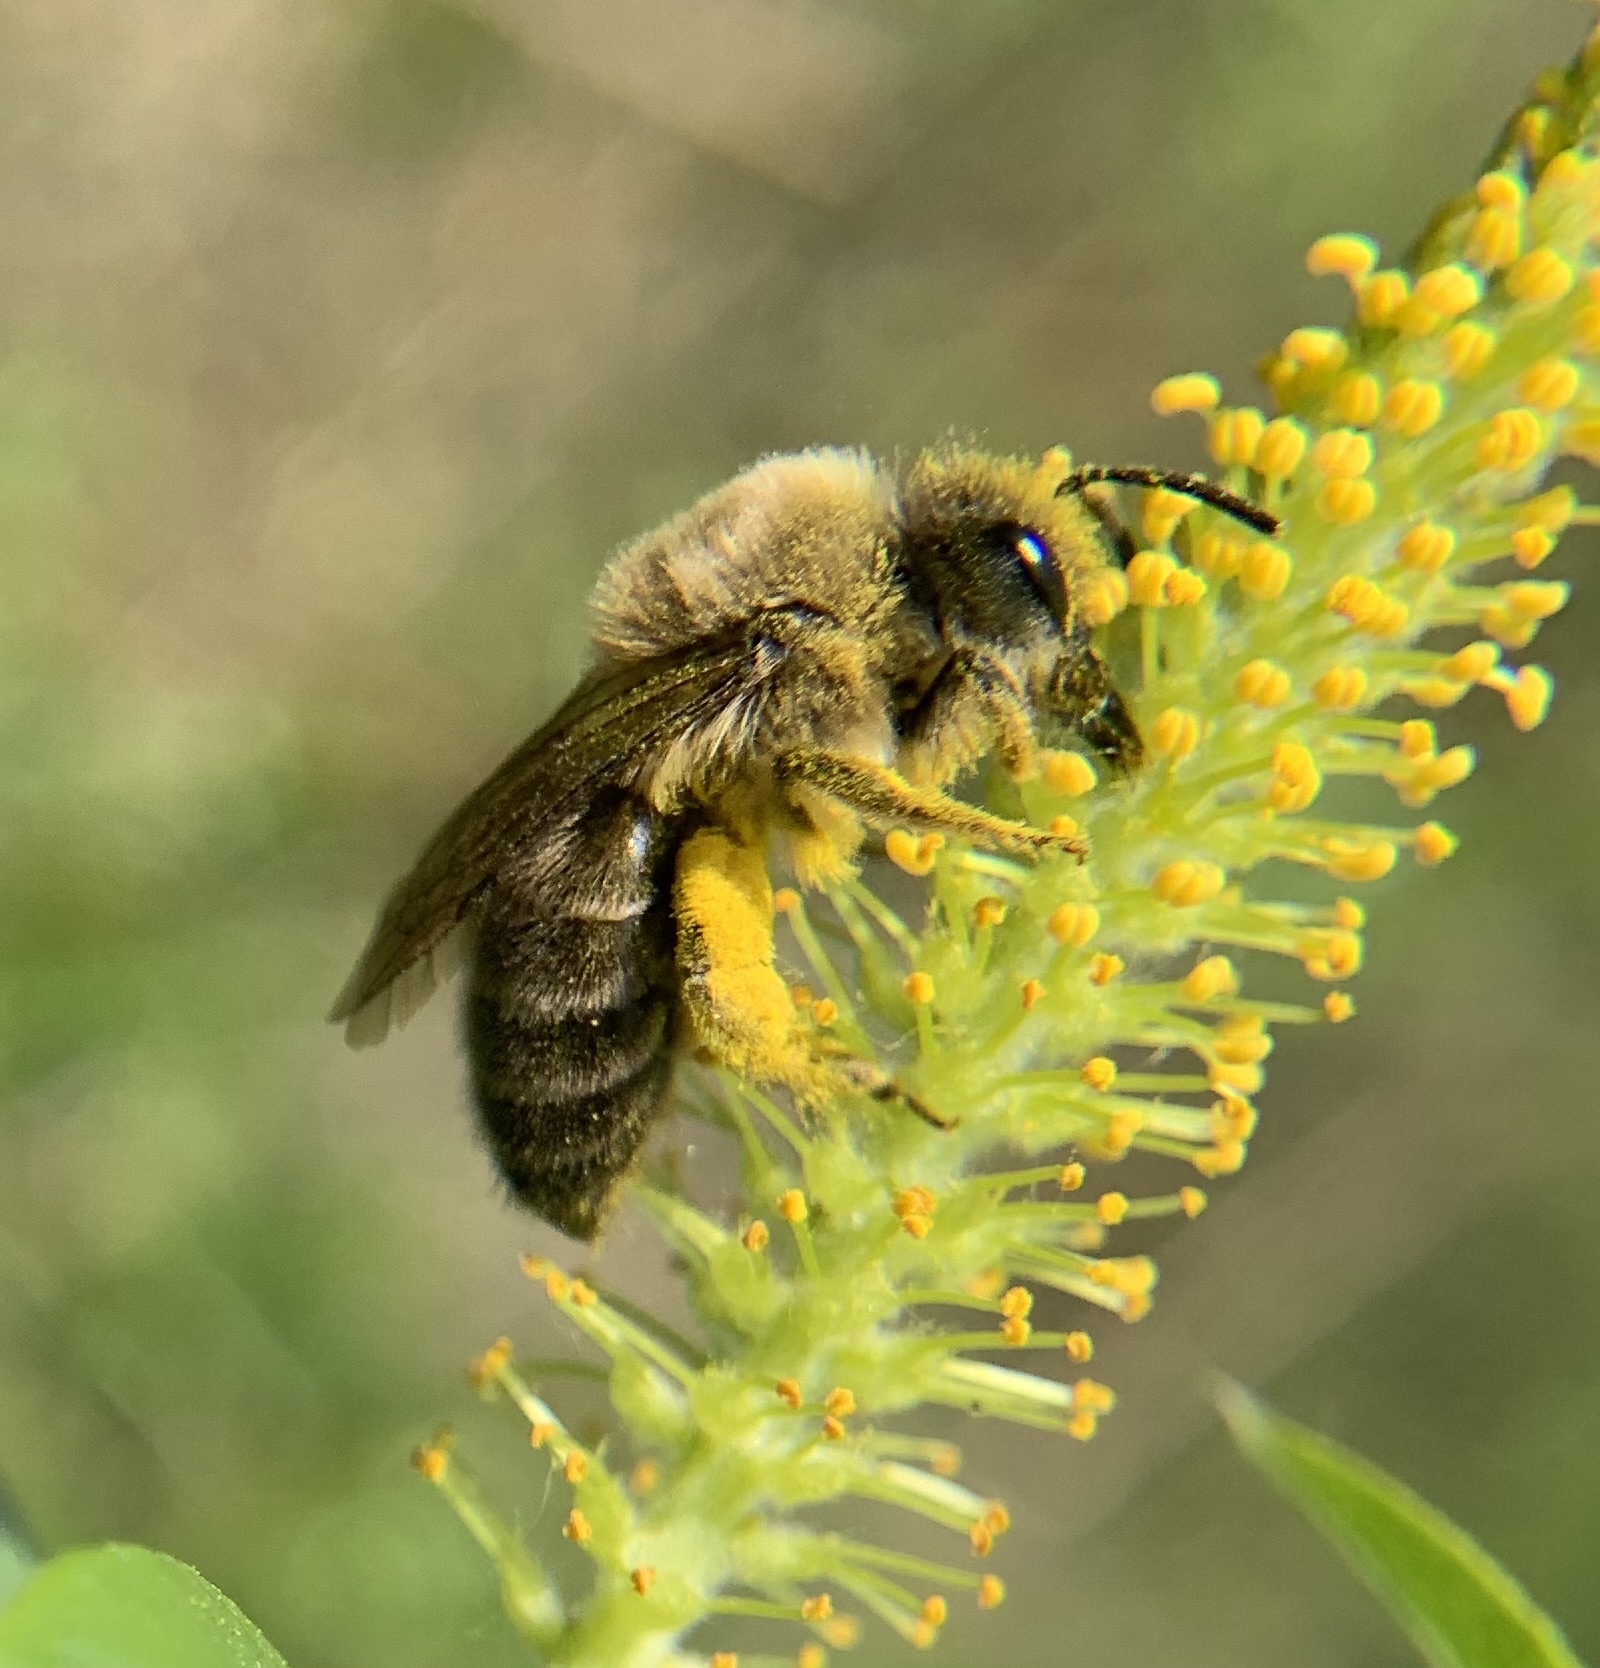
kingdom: Animalia
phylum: Arthropoda
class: Insecta
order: Hymenoptera
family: Colletidae
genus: Colletes
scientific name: Colletes cunicularius
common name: Early colletes
